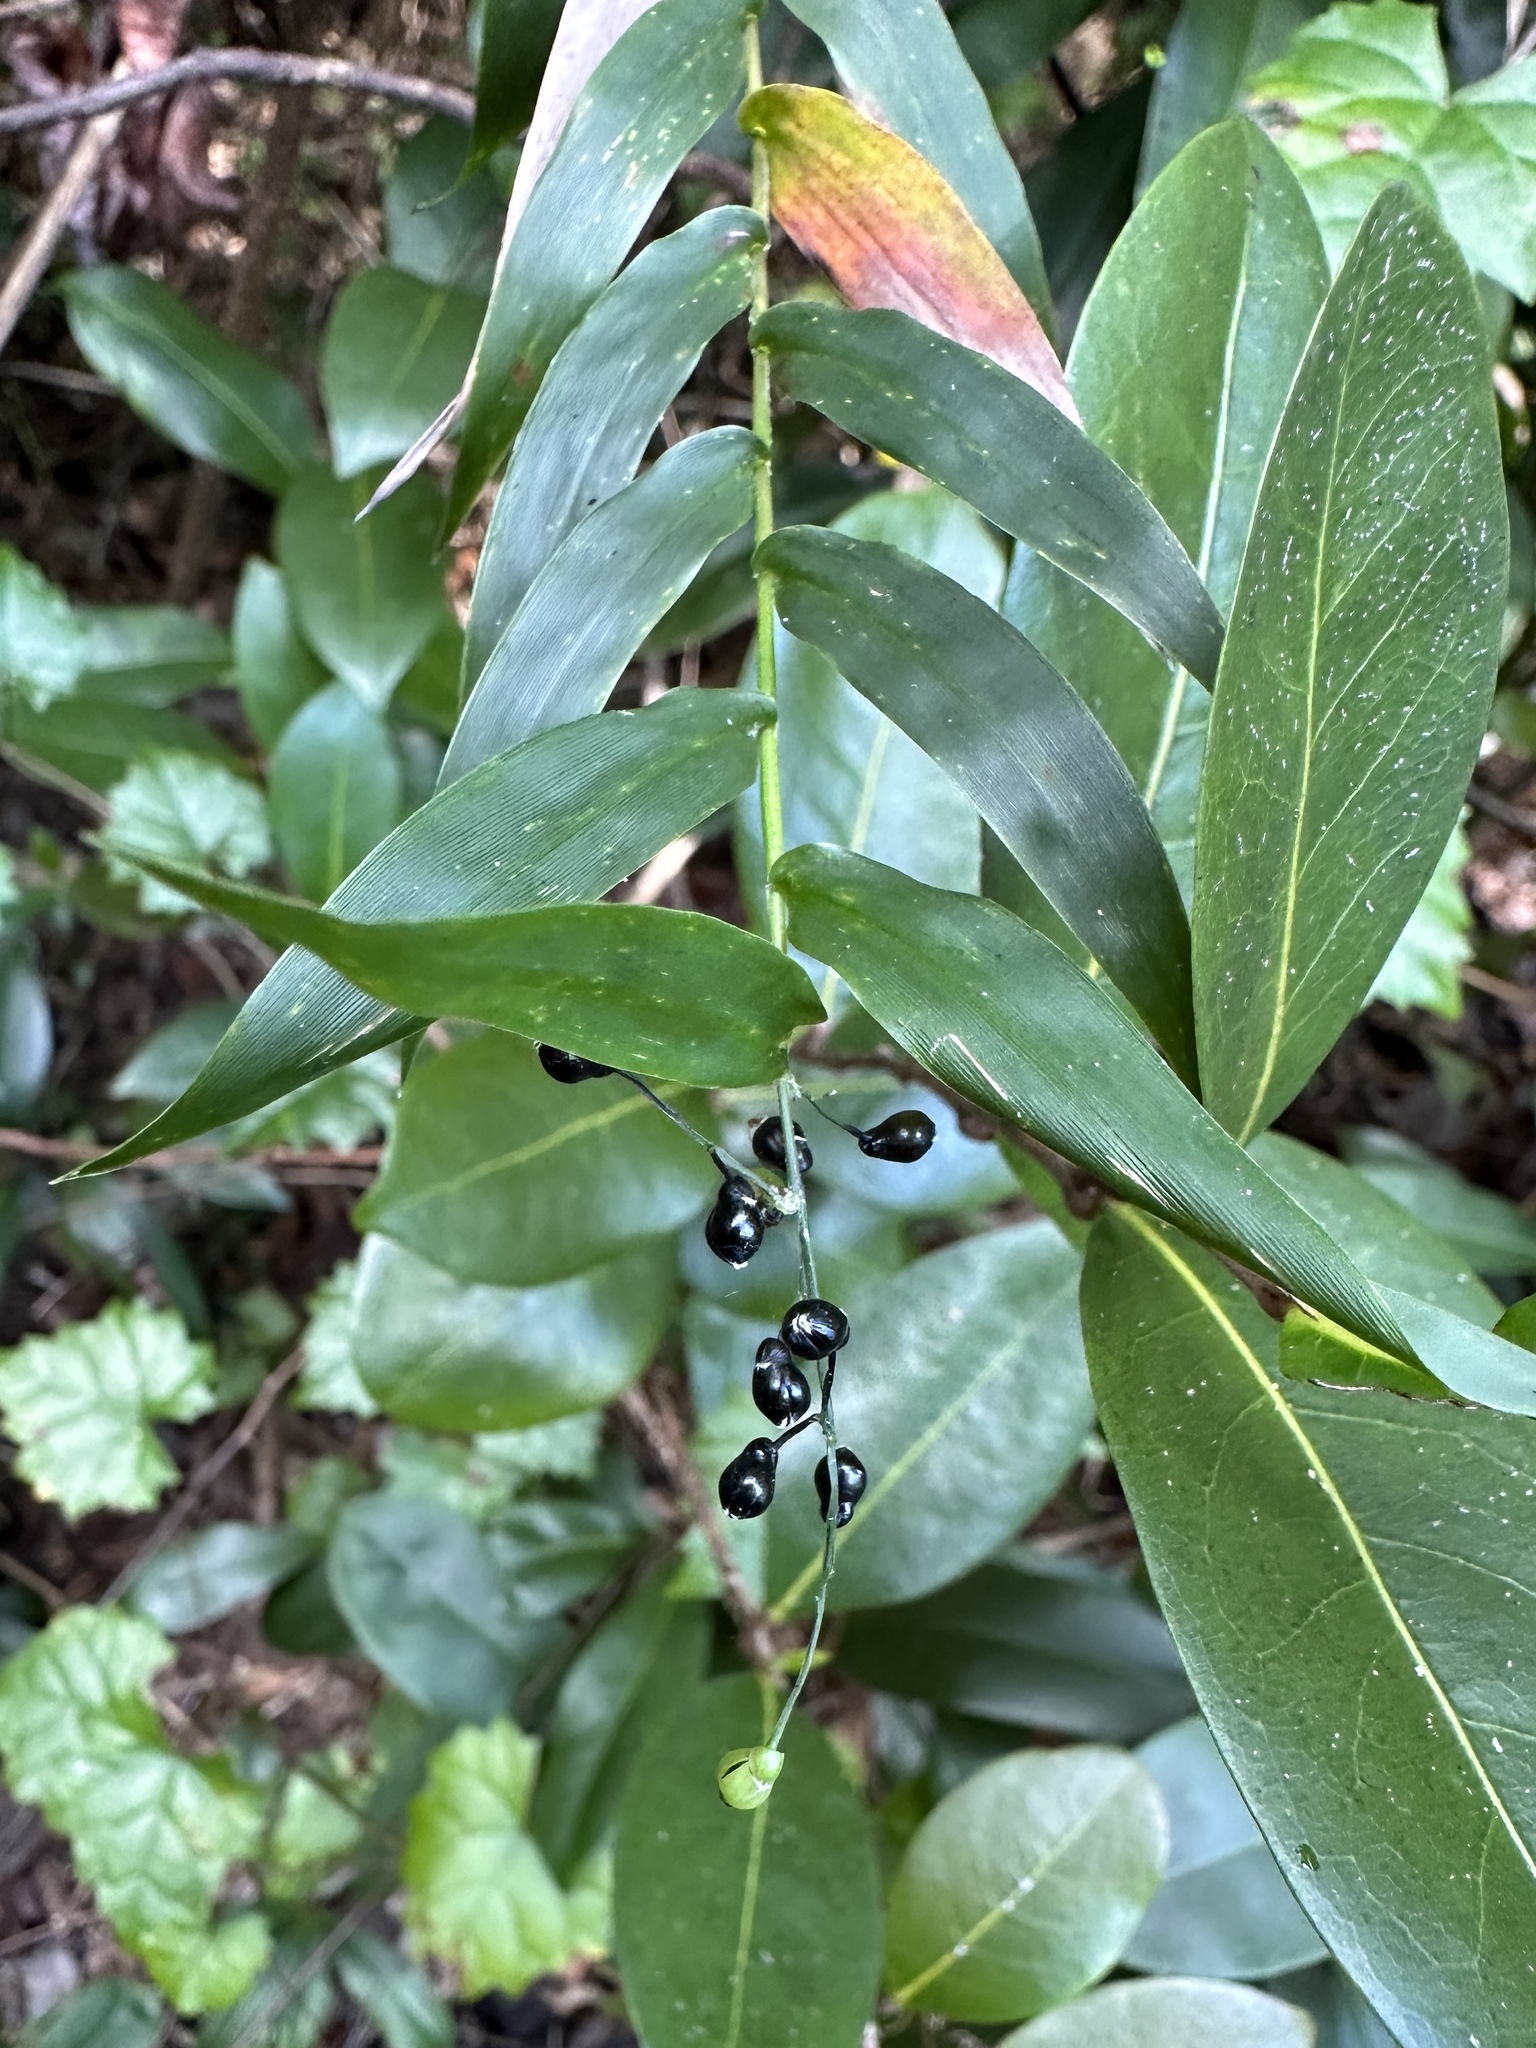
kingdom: Plantae
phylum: Tracheophyta
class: Liliopsida
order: Poales
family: Poaceae
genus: Lasiacis
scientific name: Lasiacis divaricata
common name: Smallcane
